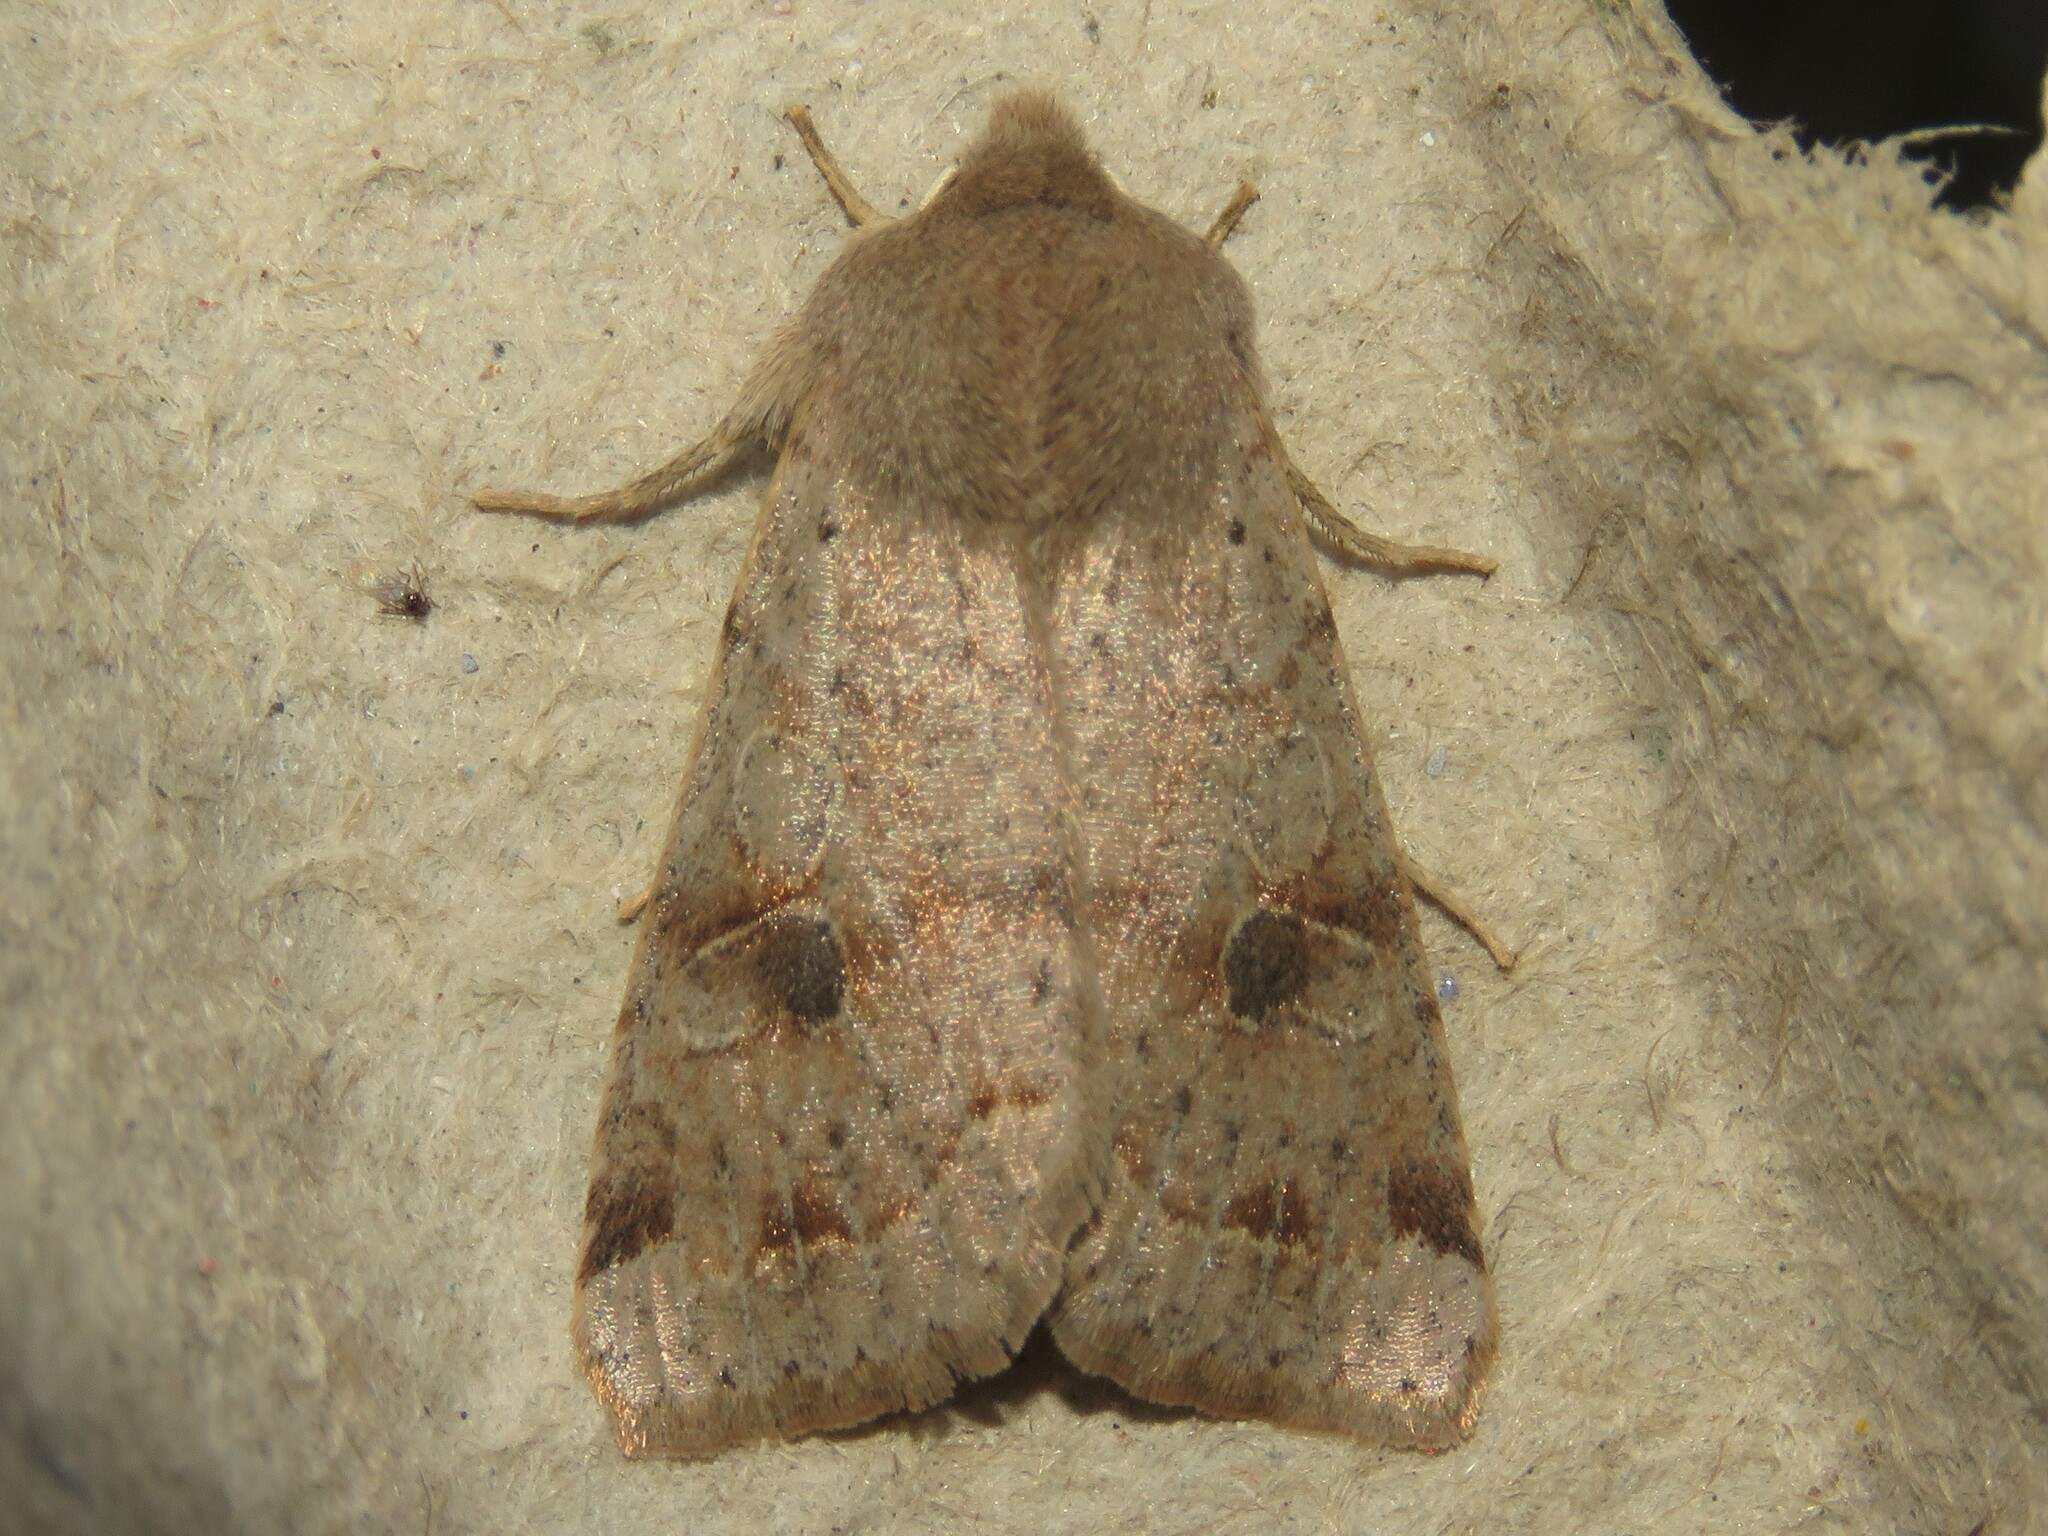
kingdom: Animalia
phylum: Arthropoda
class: Insecta
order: Lepidoptera
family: Noctuidae
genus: Orthosia
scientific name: Orthosia hibisci
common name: Green fruitworm
